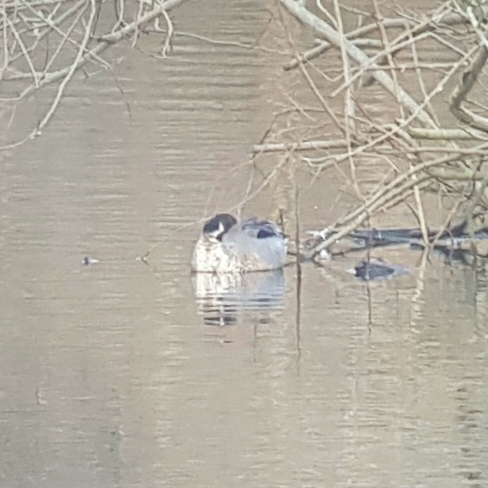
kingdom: Animalia
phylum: Chordata
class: Aves
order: Anseriformes
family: Anatidae
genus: Anas
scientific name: Anas acuta
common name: Northern pintail
